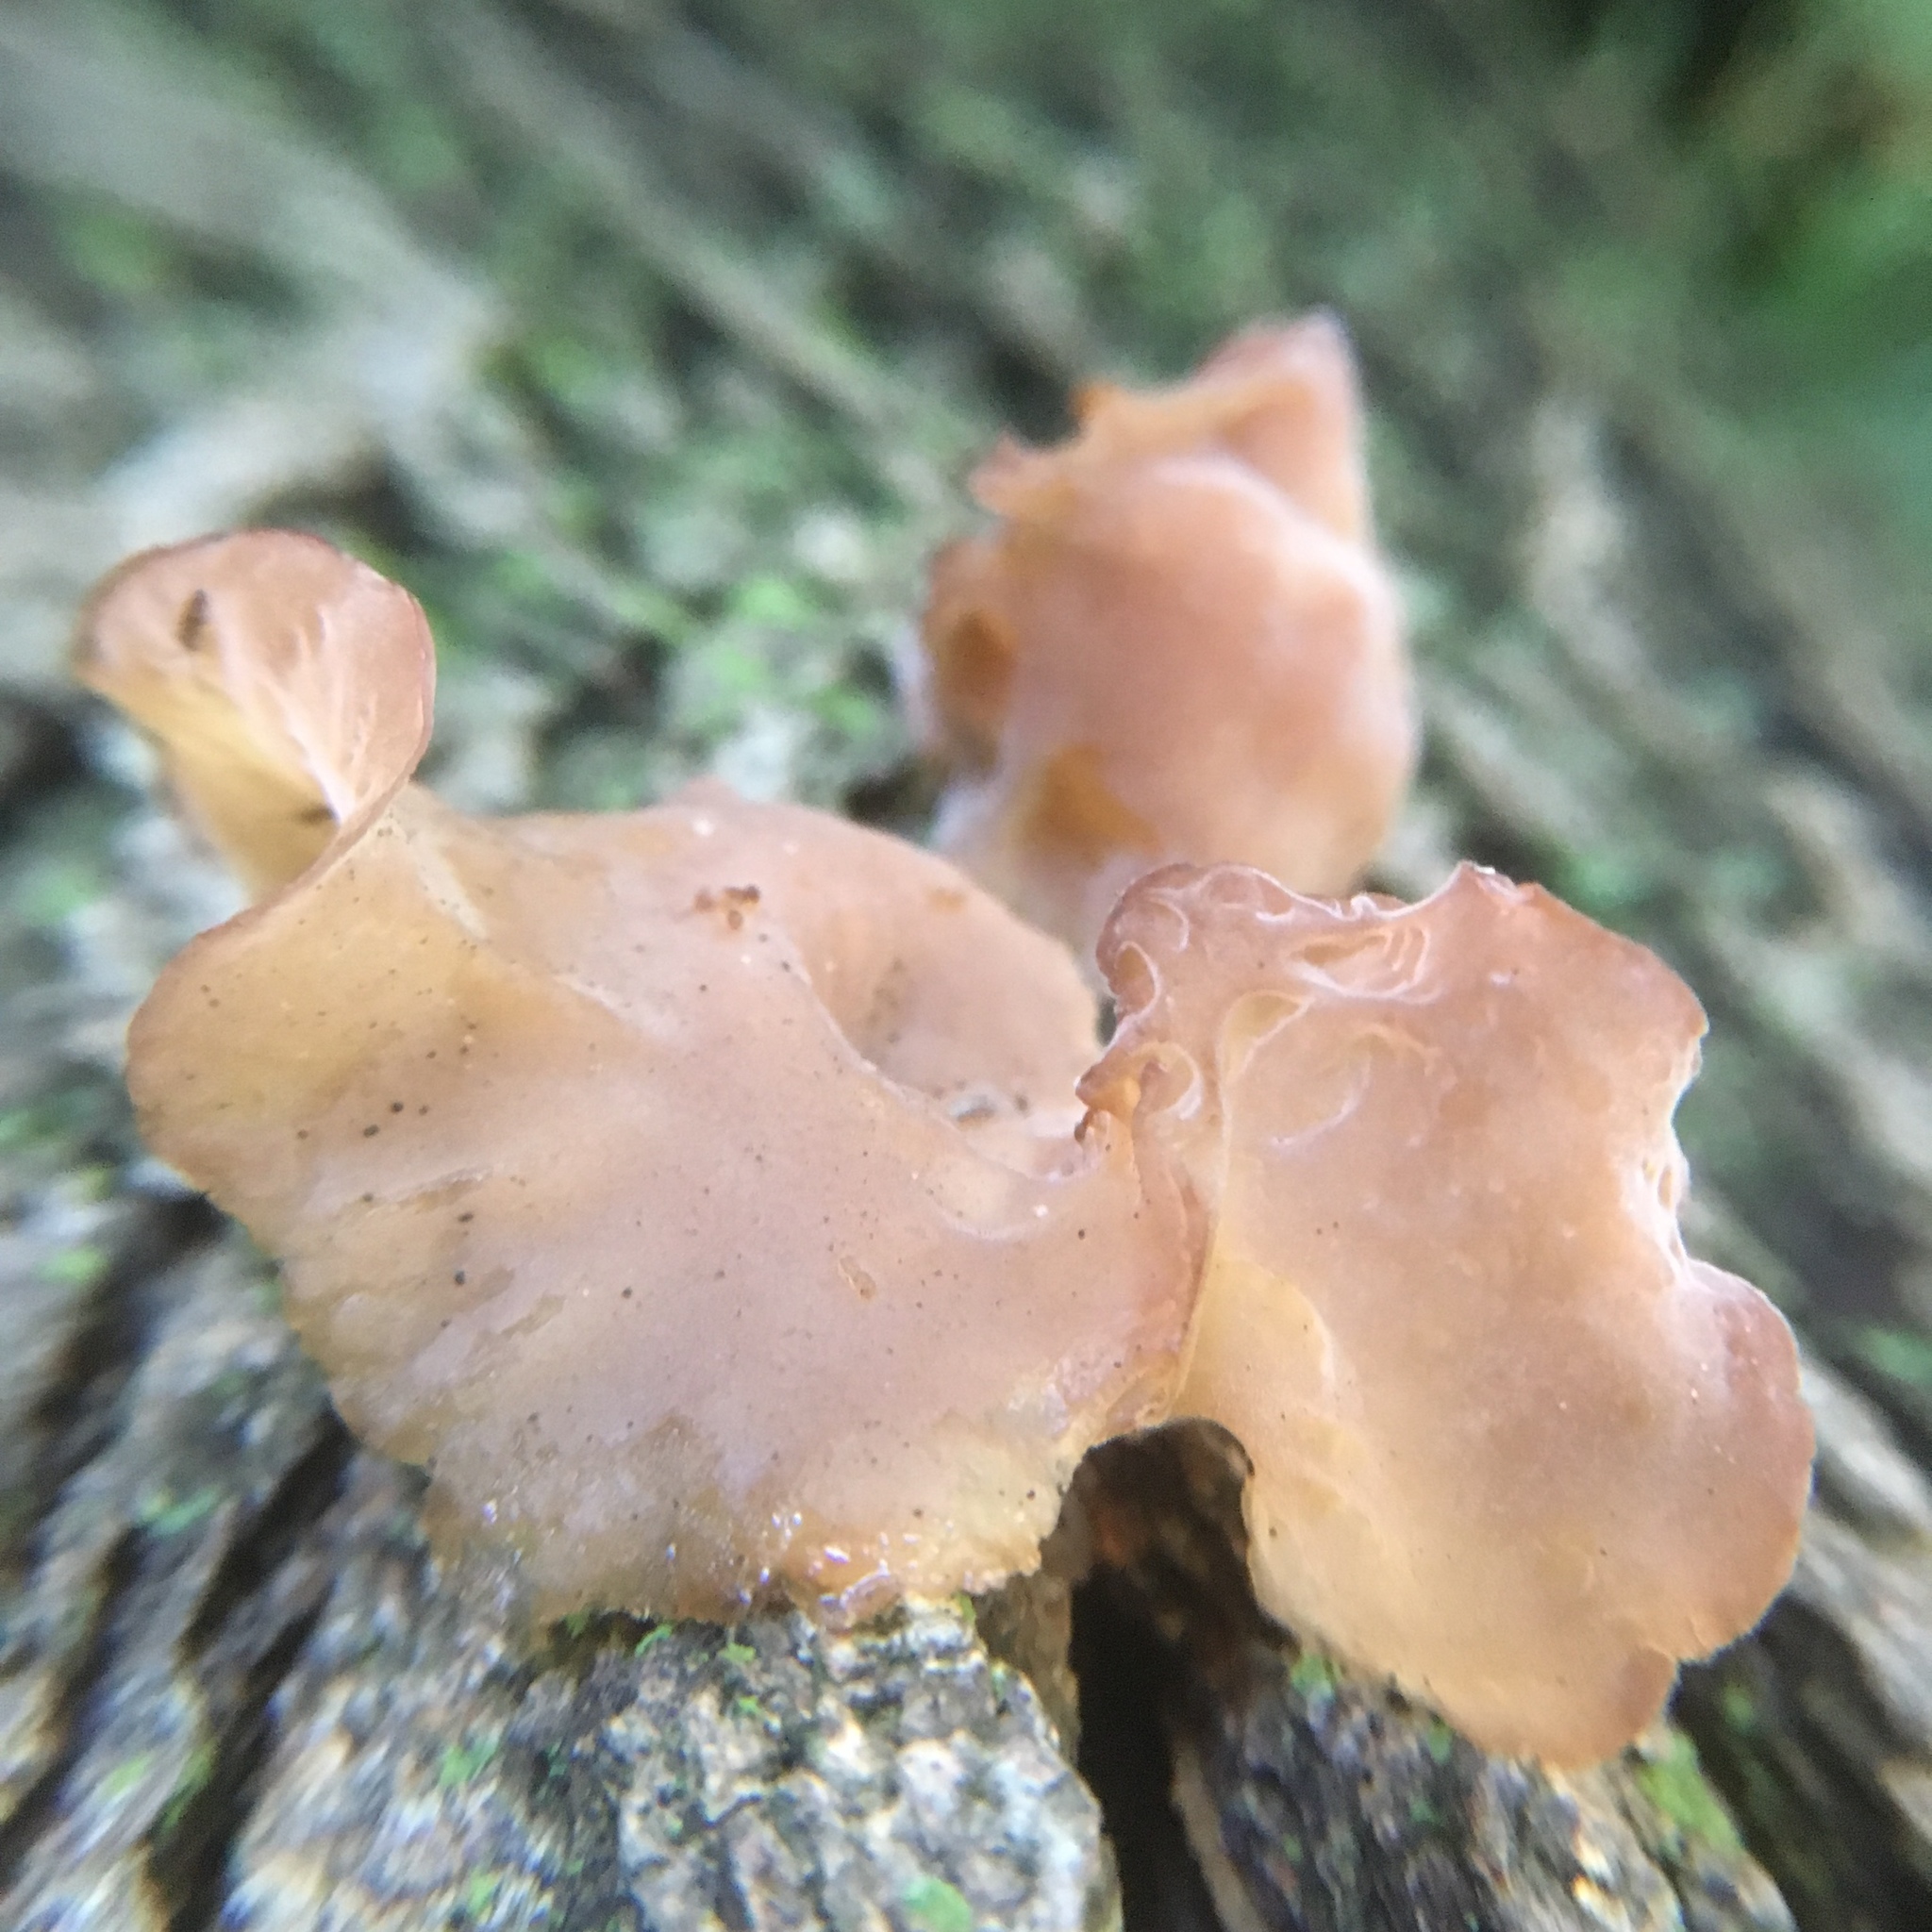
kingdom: Fungi
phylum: Basidiomycota
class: Agaricomycetes
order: Auriculariales
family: Auriculariaceae
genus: Auricularia
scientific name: Auricularia americana
